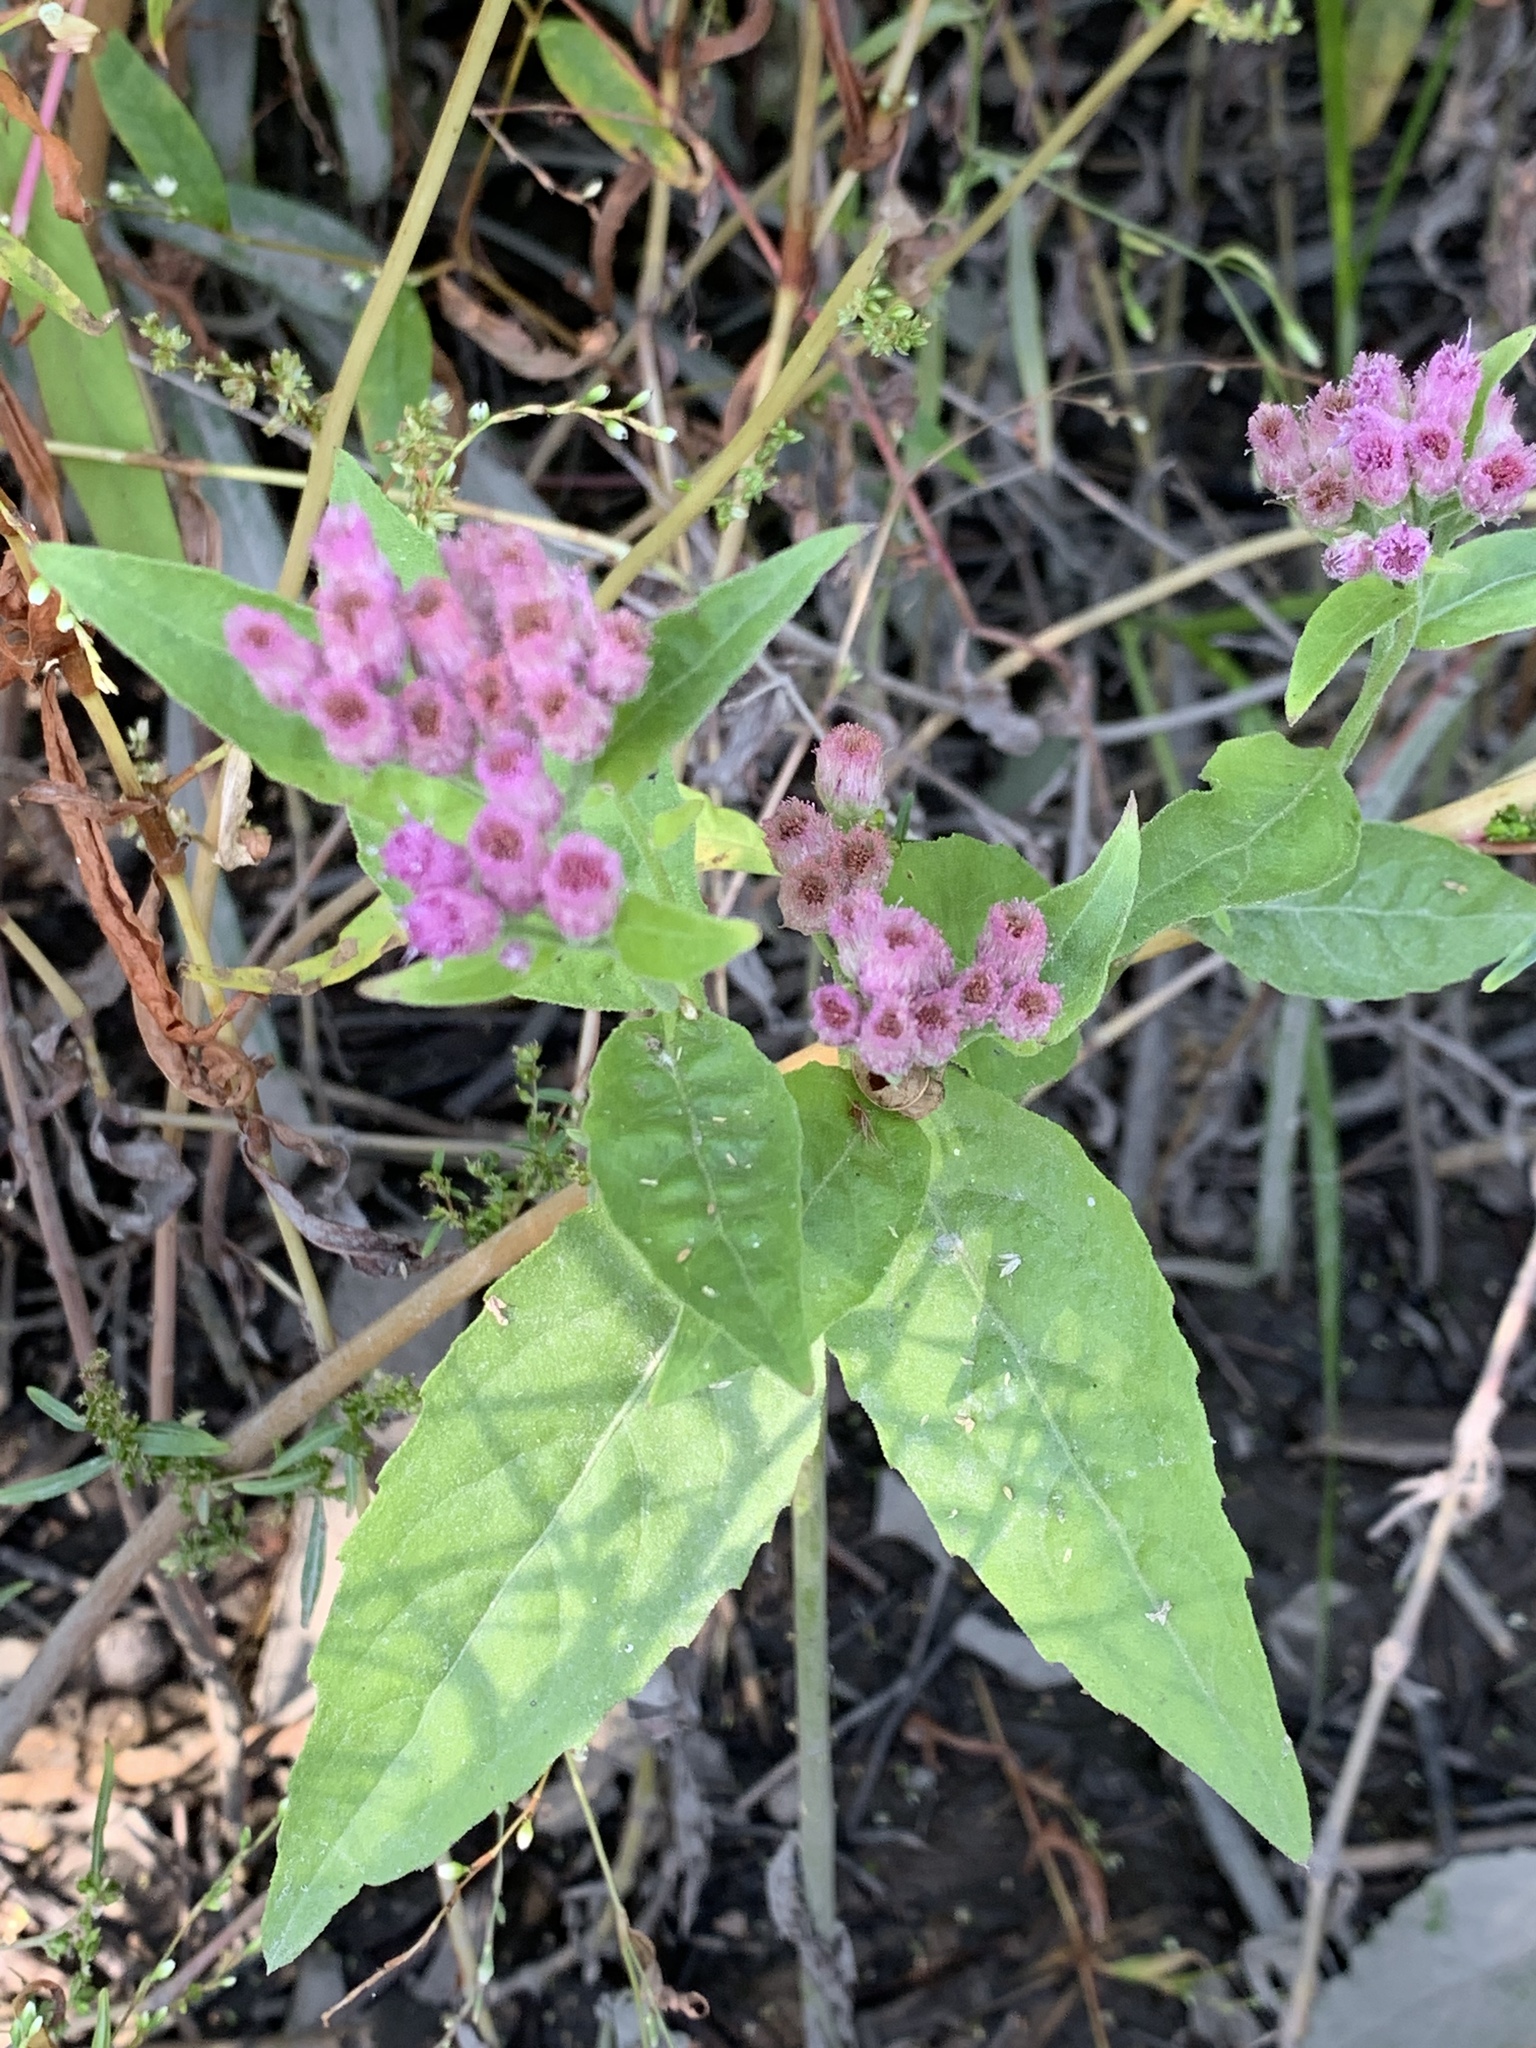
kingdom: Plantae
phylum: Tracheophyta
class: Magnoliopsida
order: Asterales
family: Asteraceae
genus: Pluchea
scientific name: Pluchea odorata
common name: Saltmarsh fleabane
